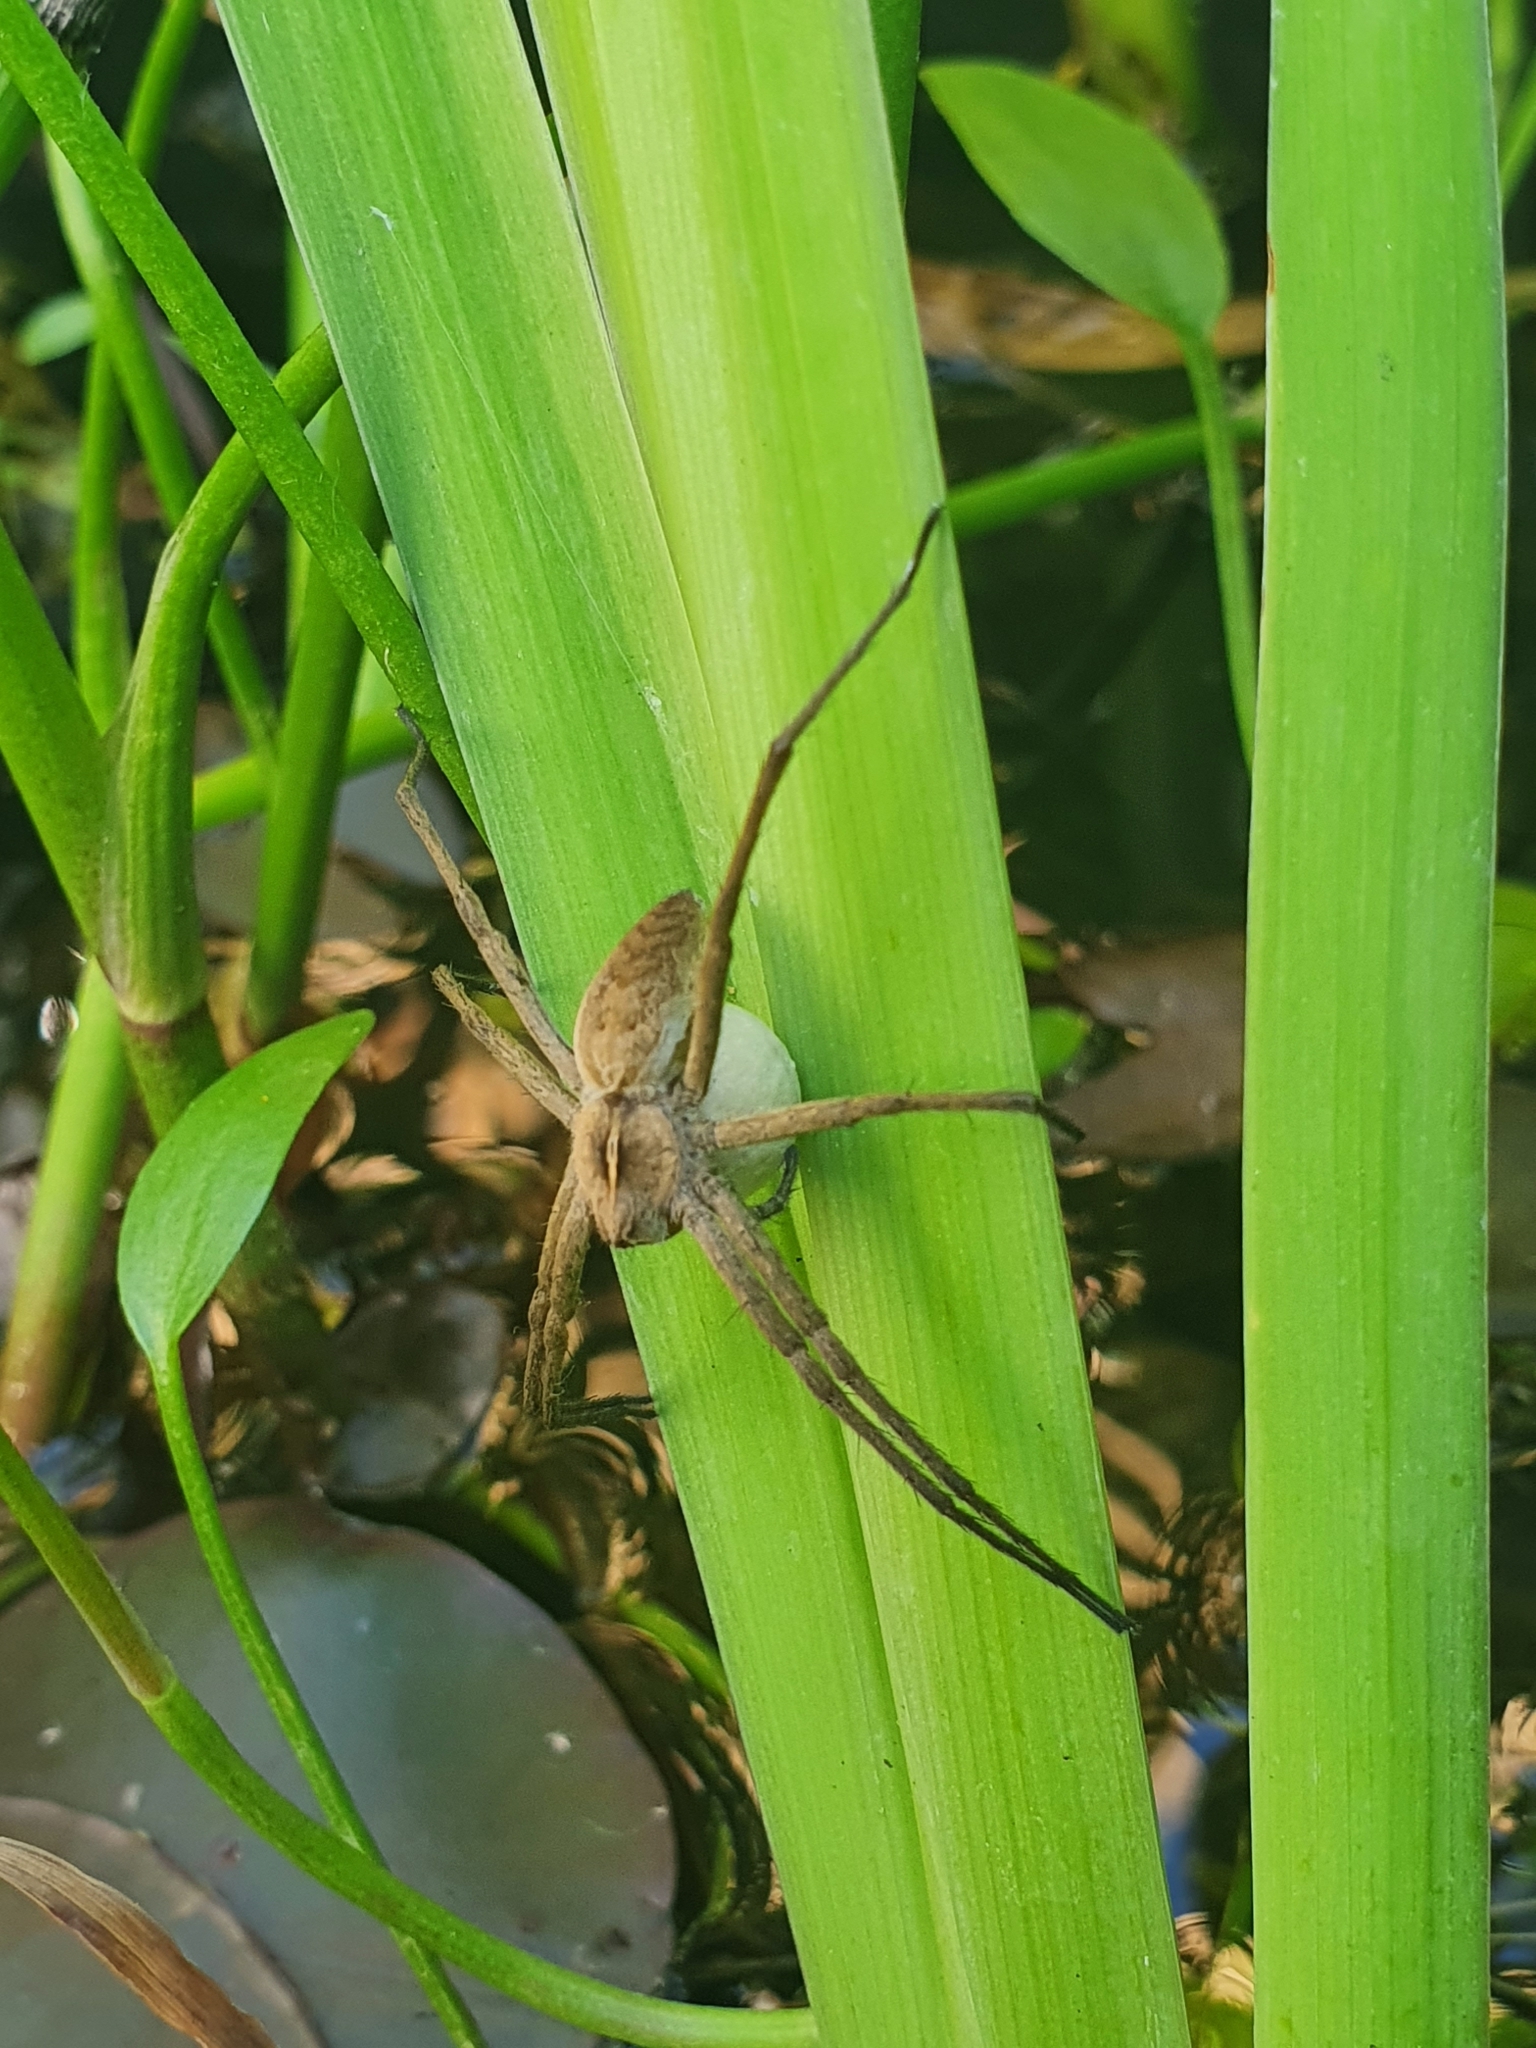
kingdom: Animalia
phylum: Arthropoda
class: Arachnida
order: Araneae
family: Pisauridae
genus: Pisaura
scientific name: Pisaura mirabilis
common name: Tent spider
